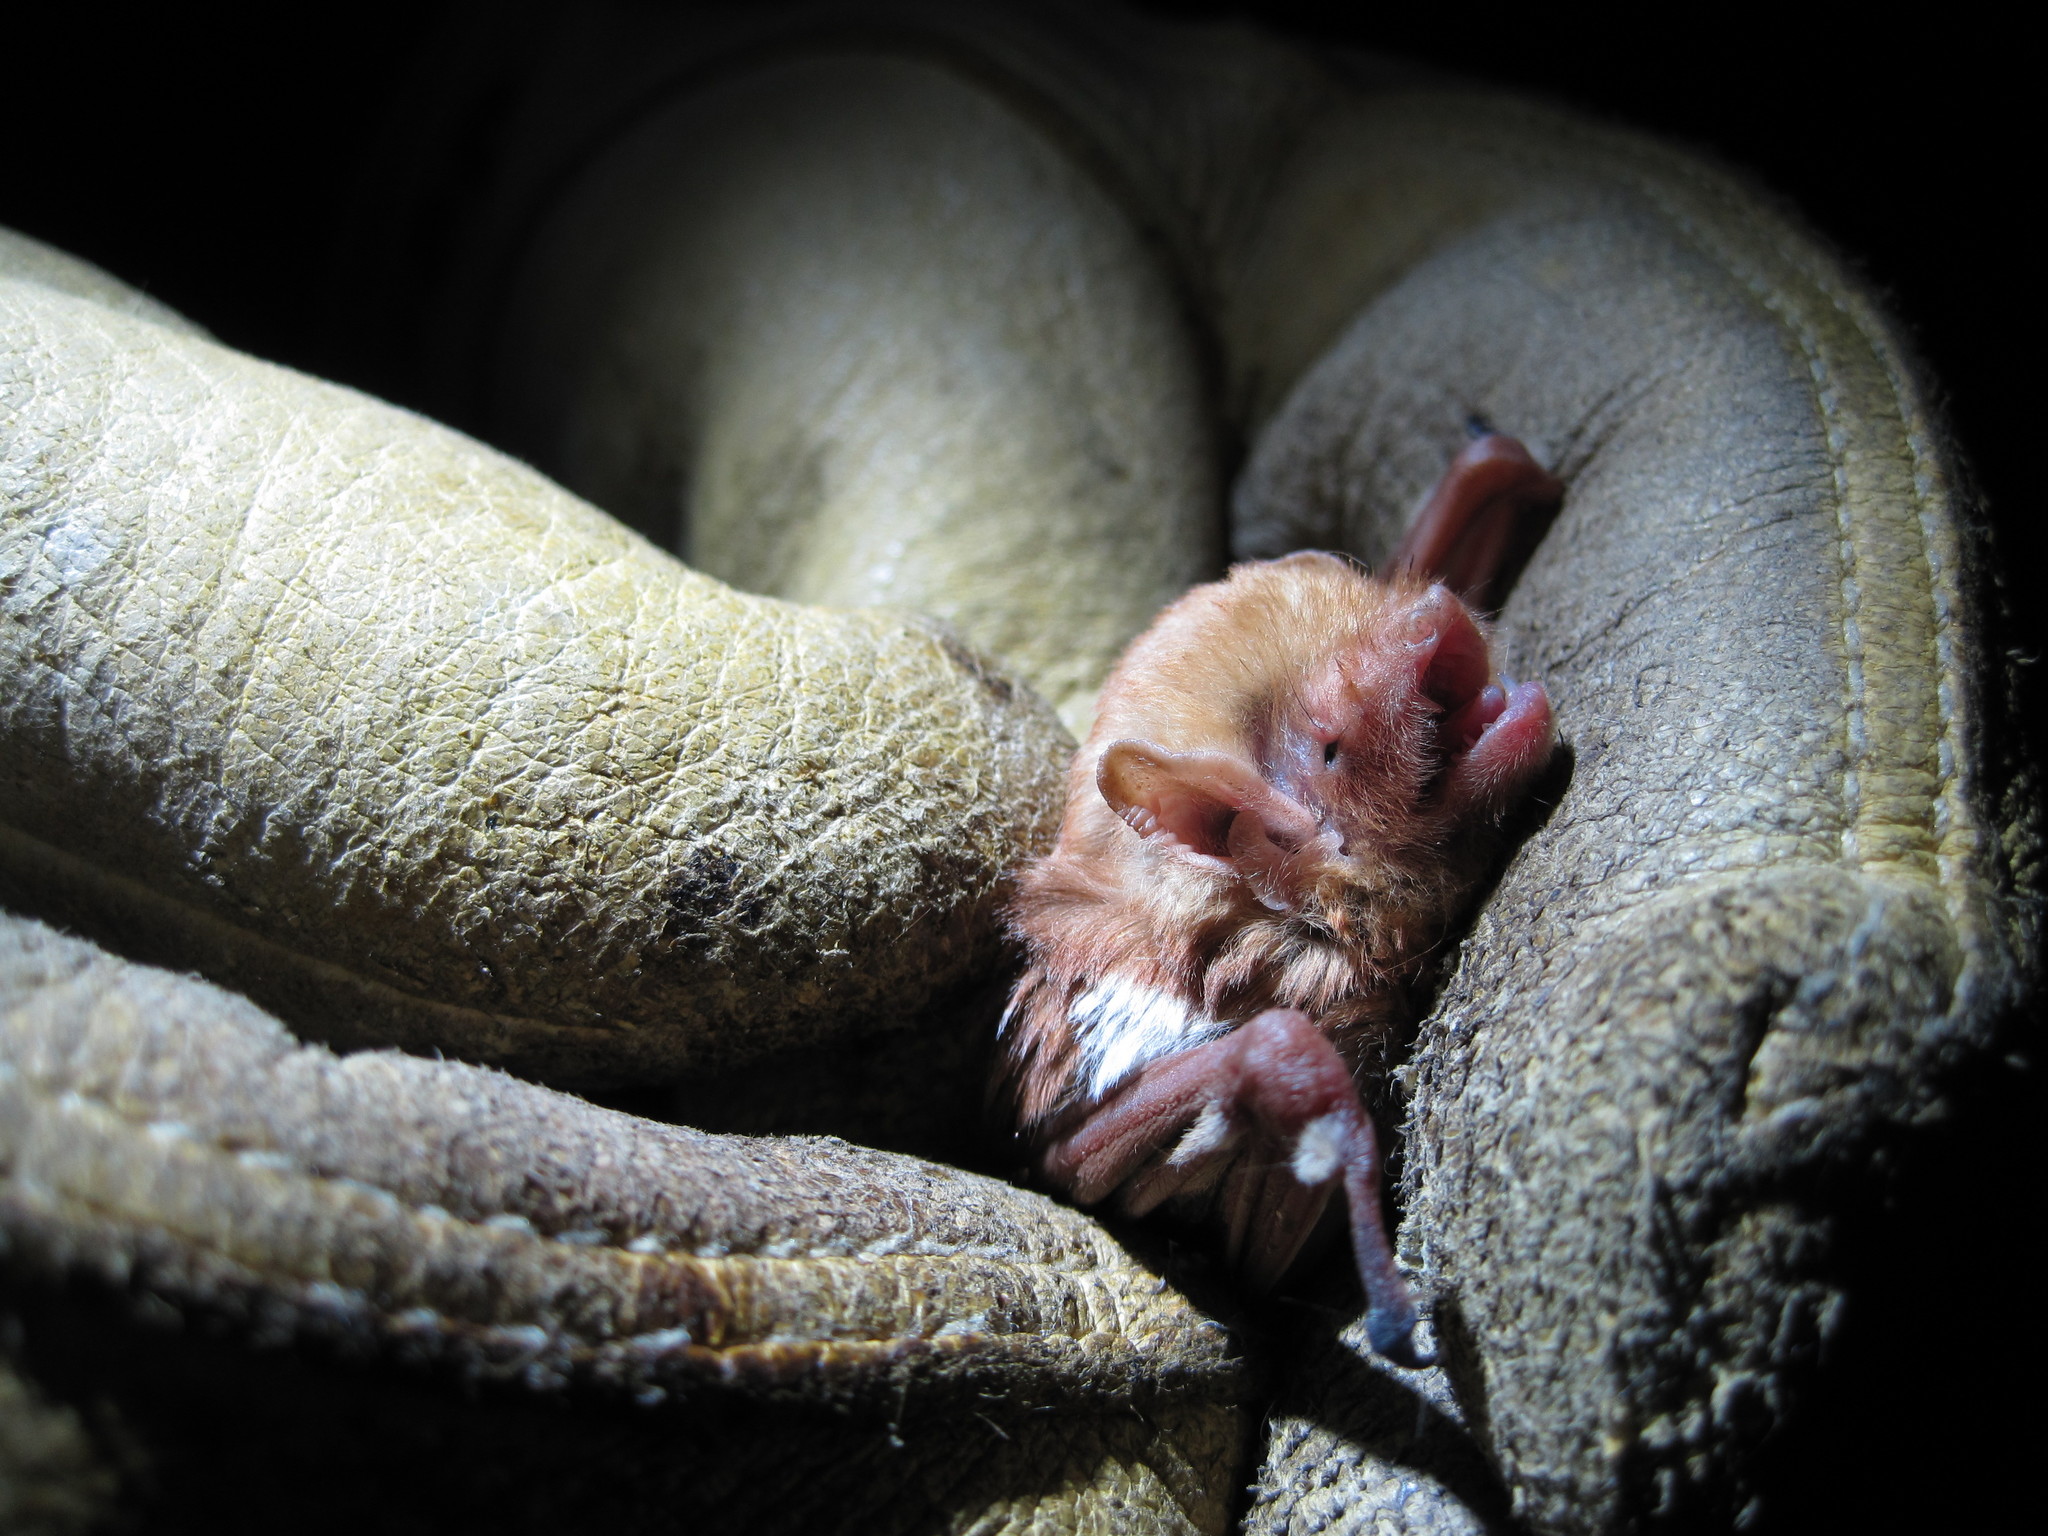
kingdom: Animalia
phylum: Chordata
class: Mammalia
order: Chiroptera
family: Vespertilionidae
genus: Lasiurus
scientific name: Lasiurus borealis
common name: Eastern red bat
